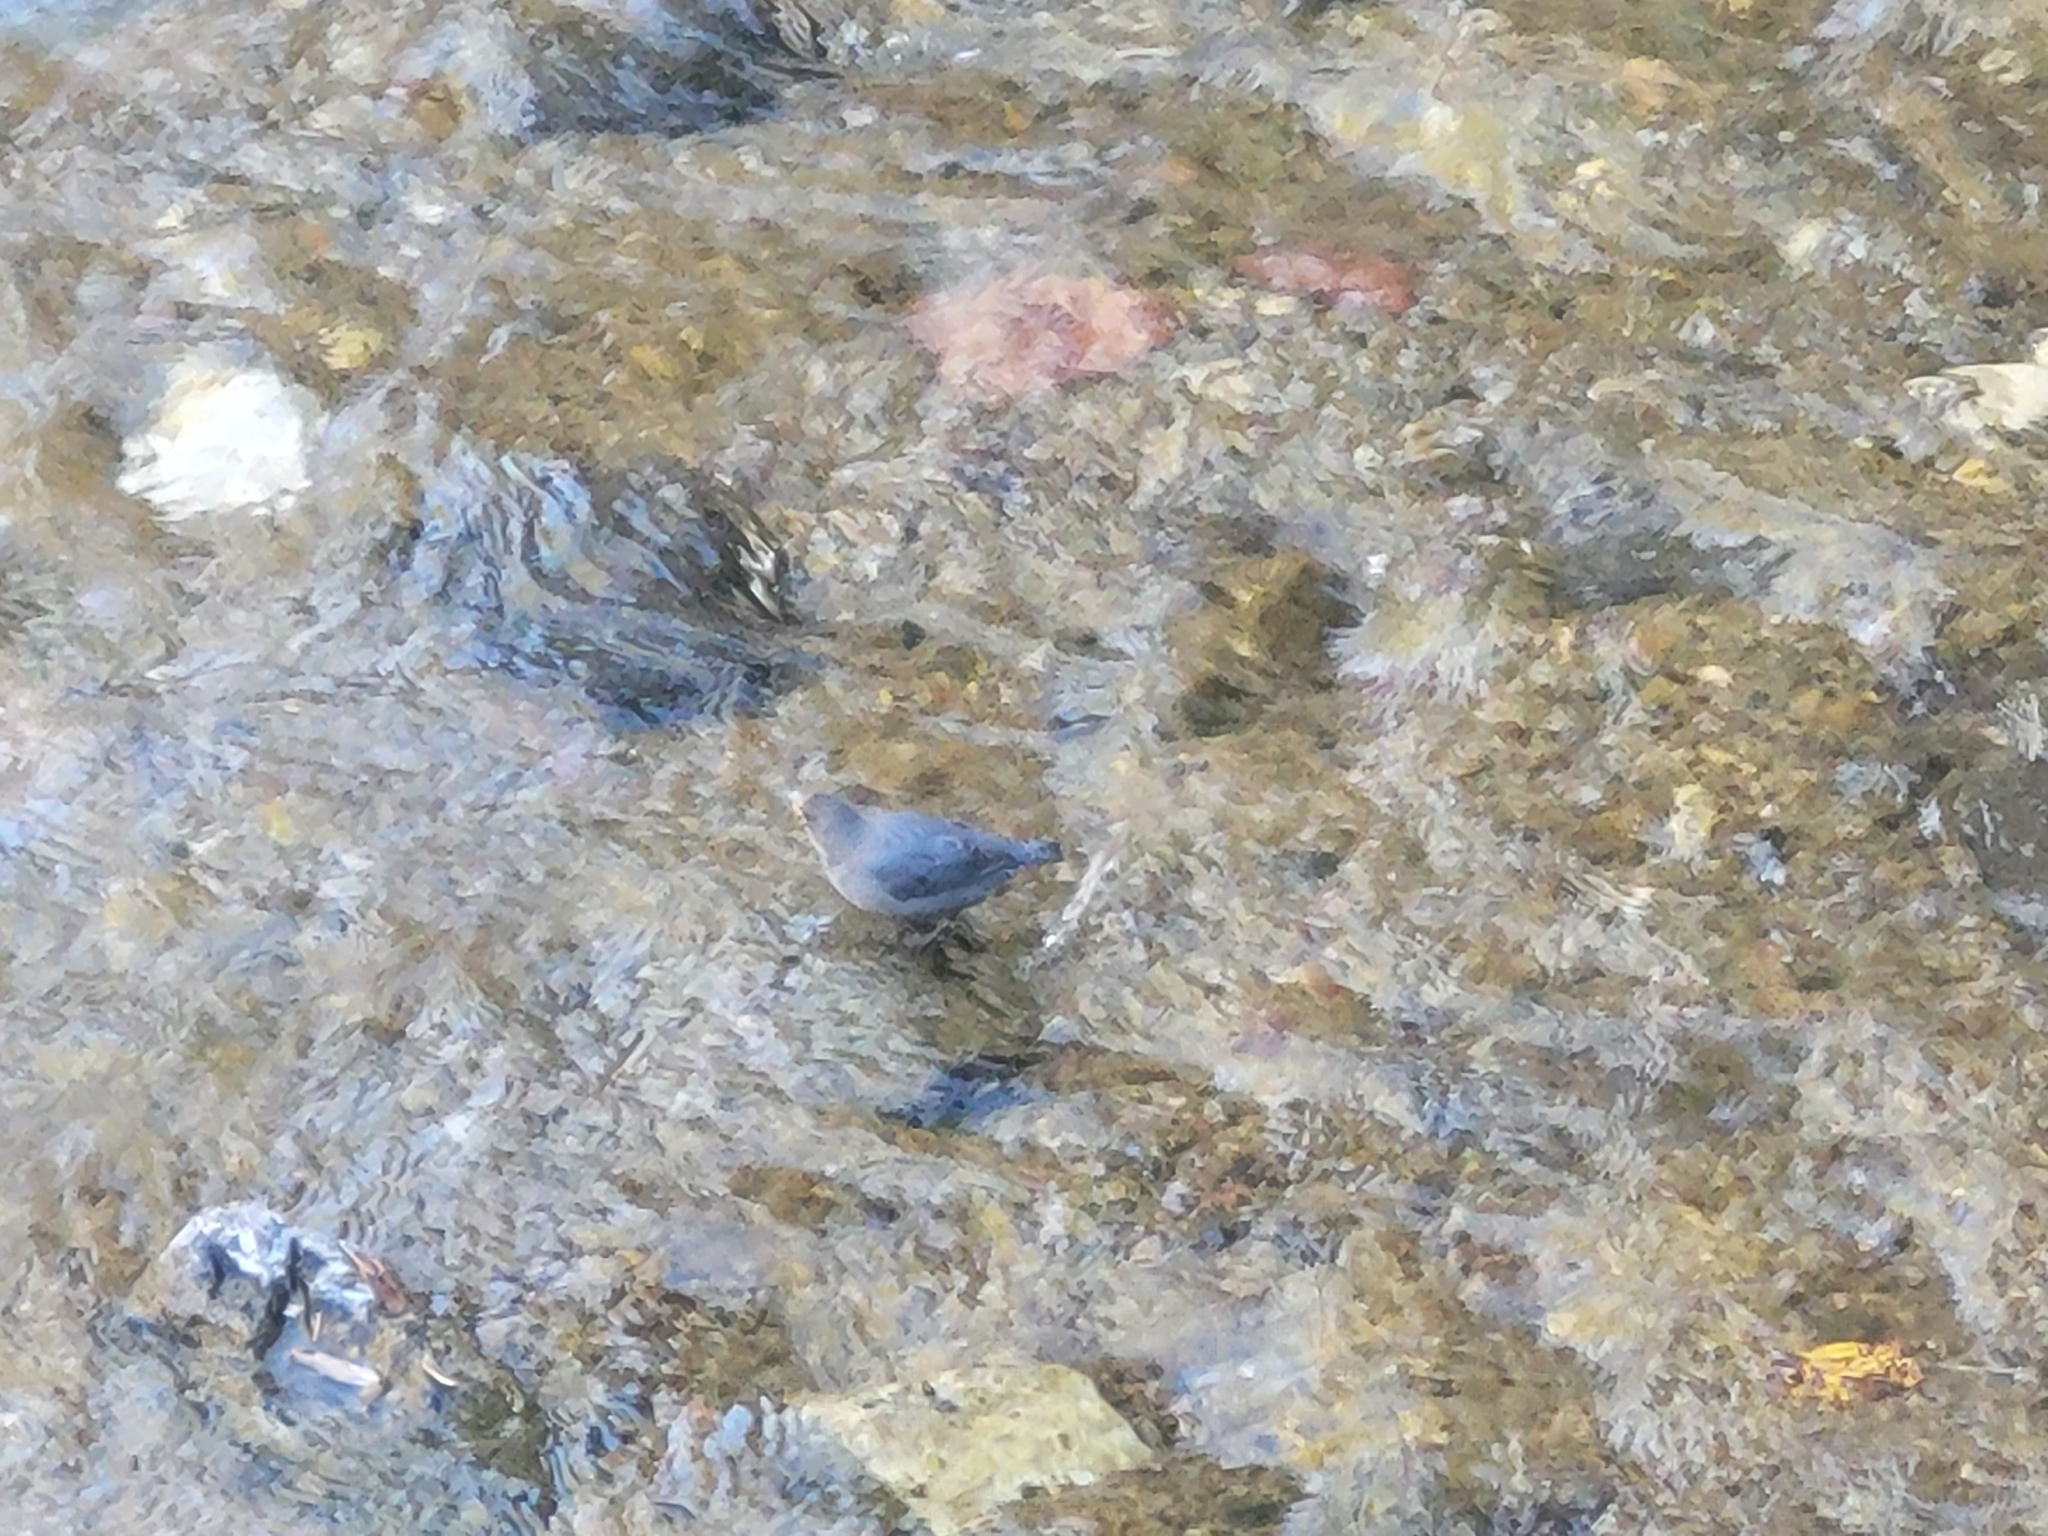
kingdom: Animalia
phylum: Chordata
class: Aves
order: Passeriformes
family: Cinclidae
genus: Cinclus
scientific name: Cinclus mexicanus
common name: American dipper
